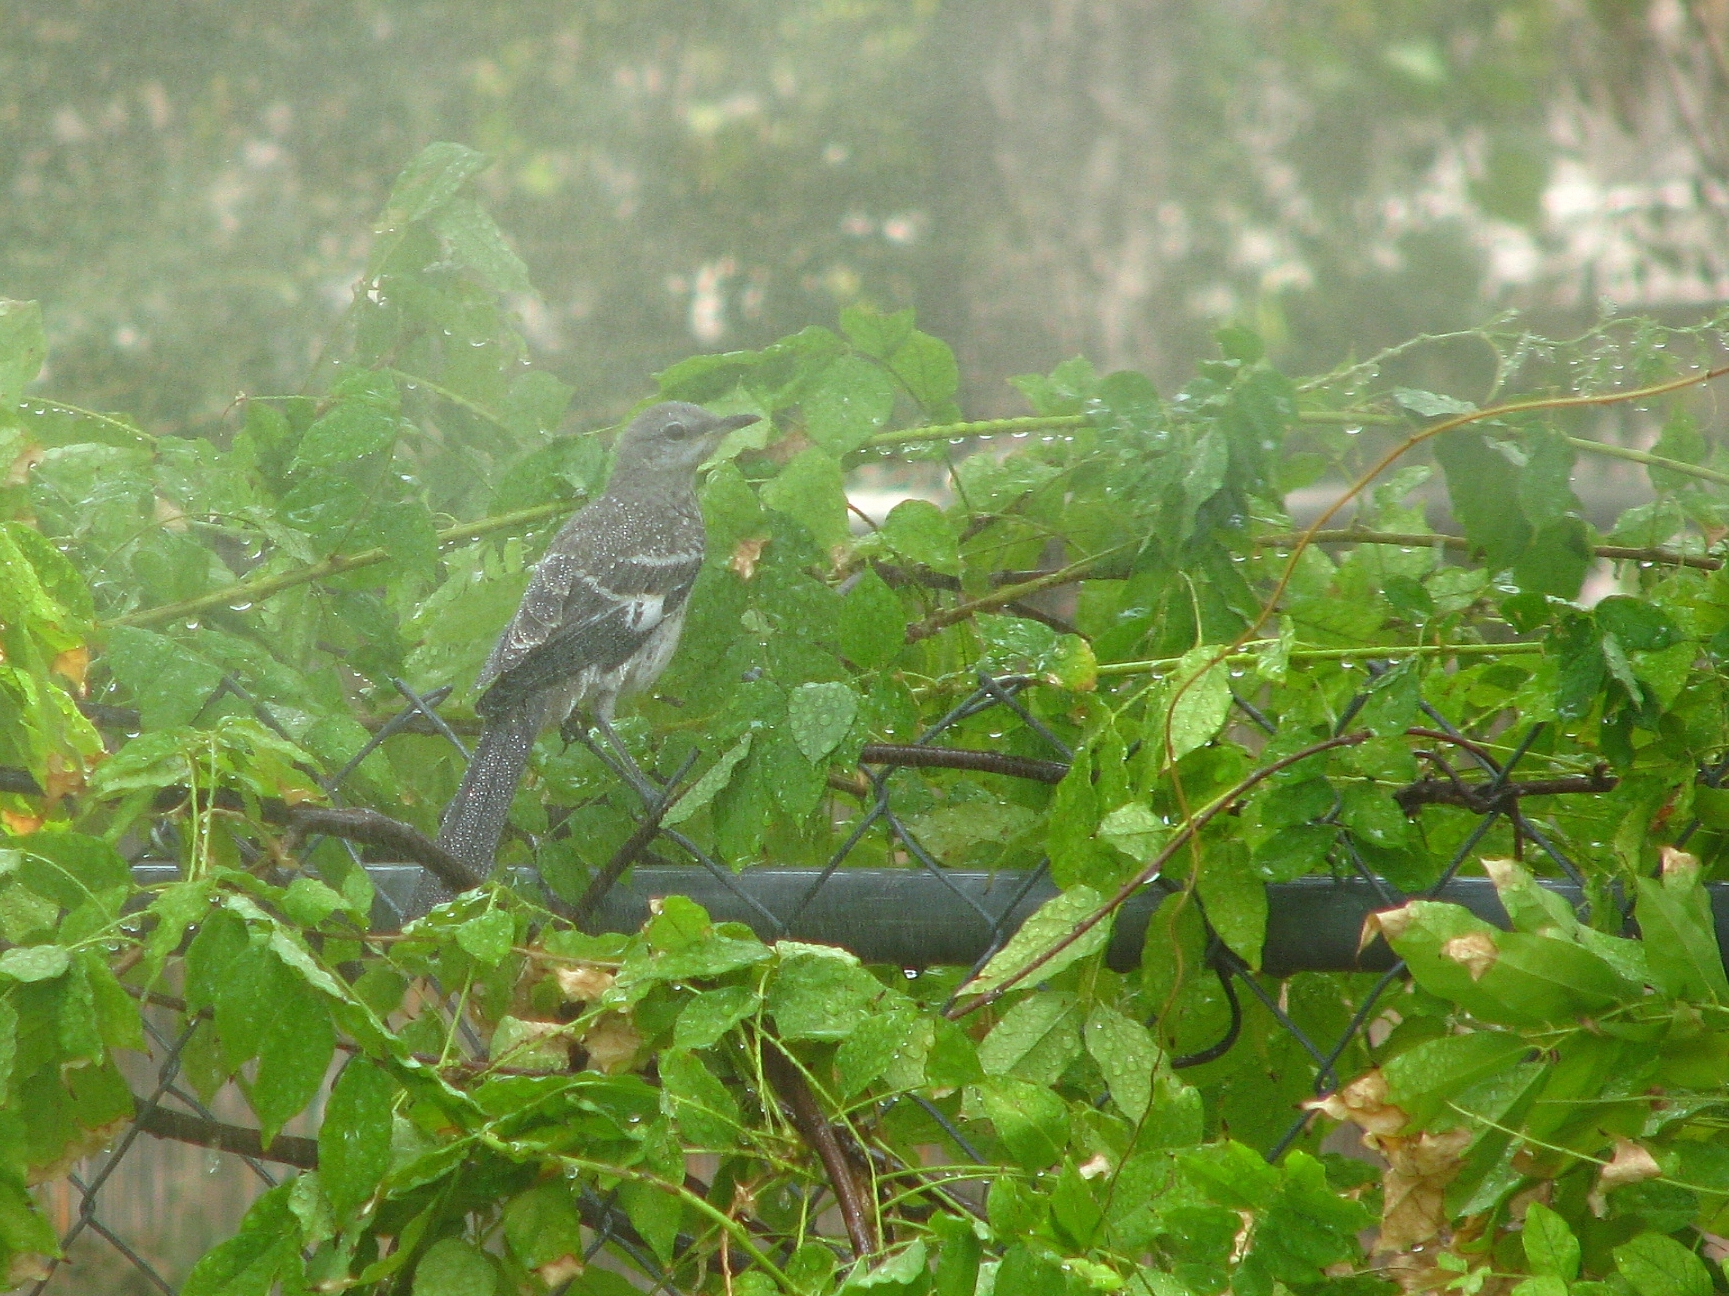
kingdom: Animalia
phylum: Chordata
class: Aves
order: Passeriformes
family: Mimidae
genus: Mimus
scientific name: Mimus polyglottos
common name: Northern mockingbird
